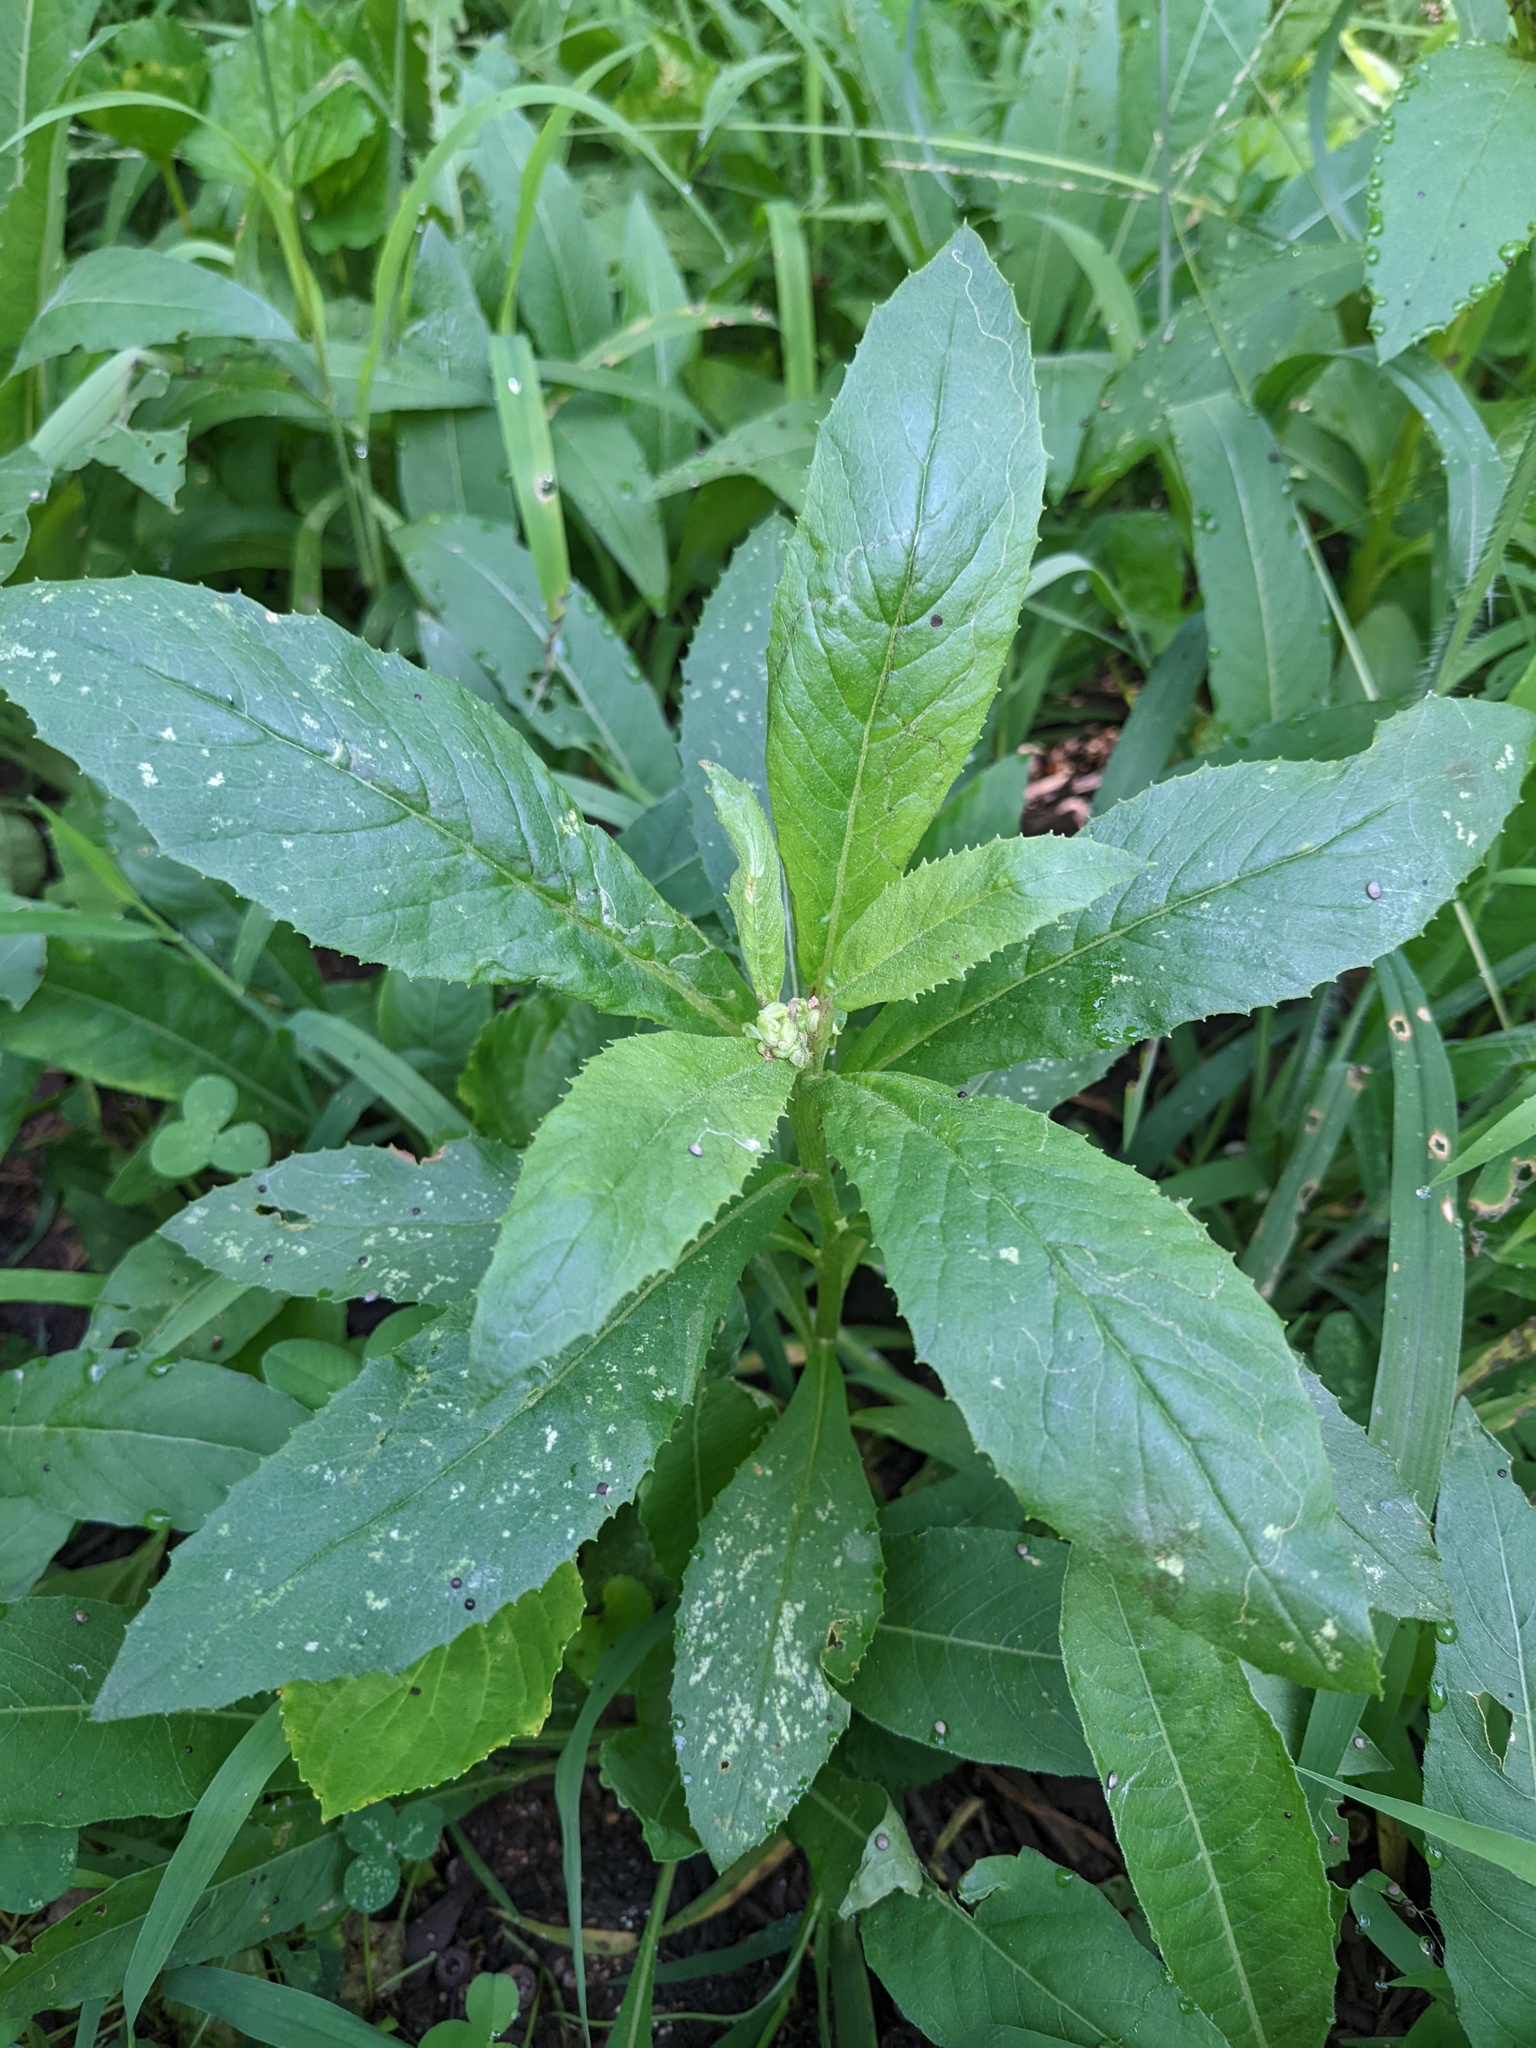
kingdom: Plantae
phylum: Tracheophyta
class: Magnoliopsida
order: Asterales
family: Asteraceae
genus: Erechtites
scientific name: Erechtites hieraciifolius
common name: American burnweed
